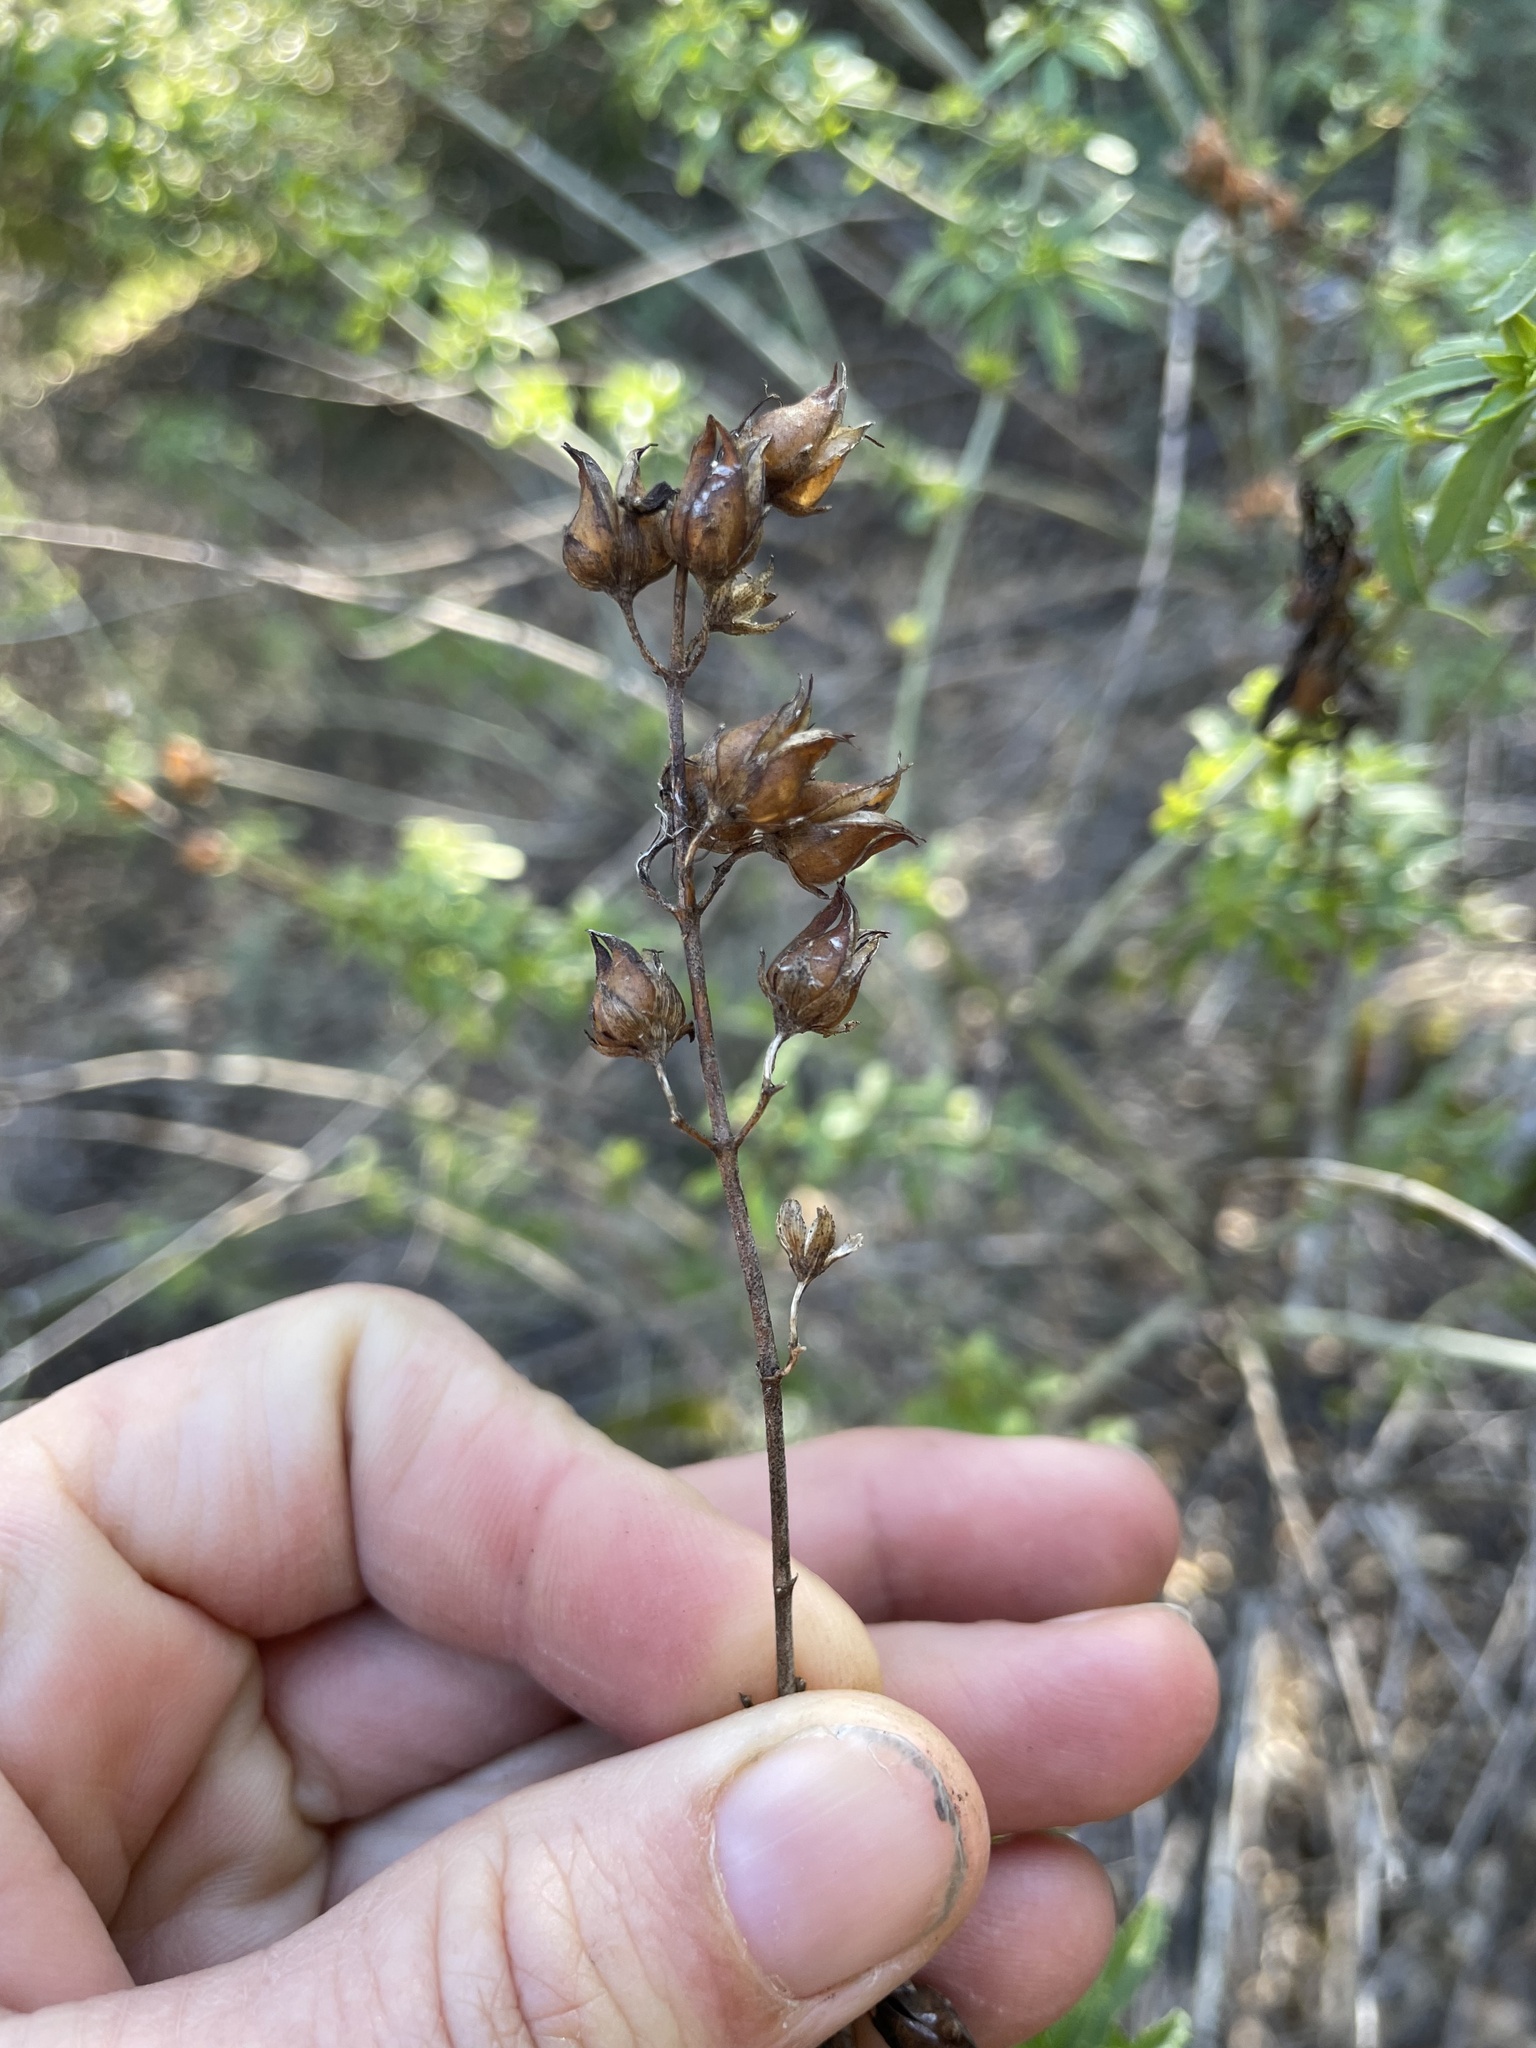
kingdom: Plantae
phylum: Tracheophyta
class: Magnoliopsida
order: Lamiales
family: Plantaginaceae
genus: Keckiella
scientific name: Keckiella ternata
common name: Scarlet keckiella
